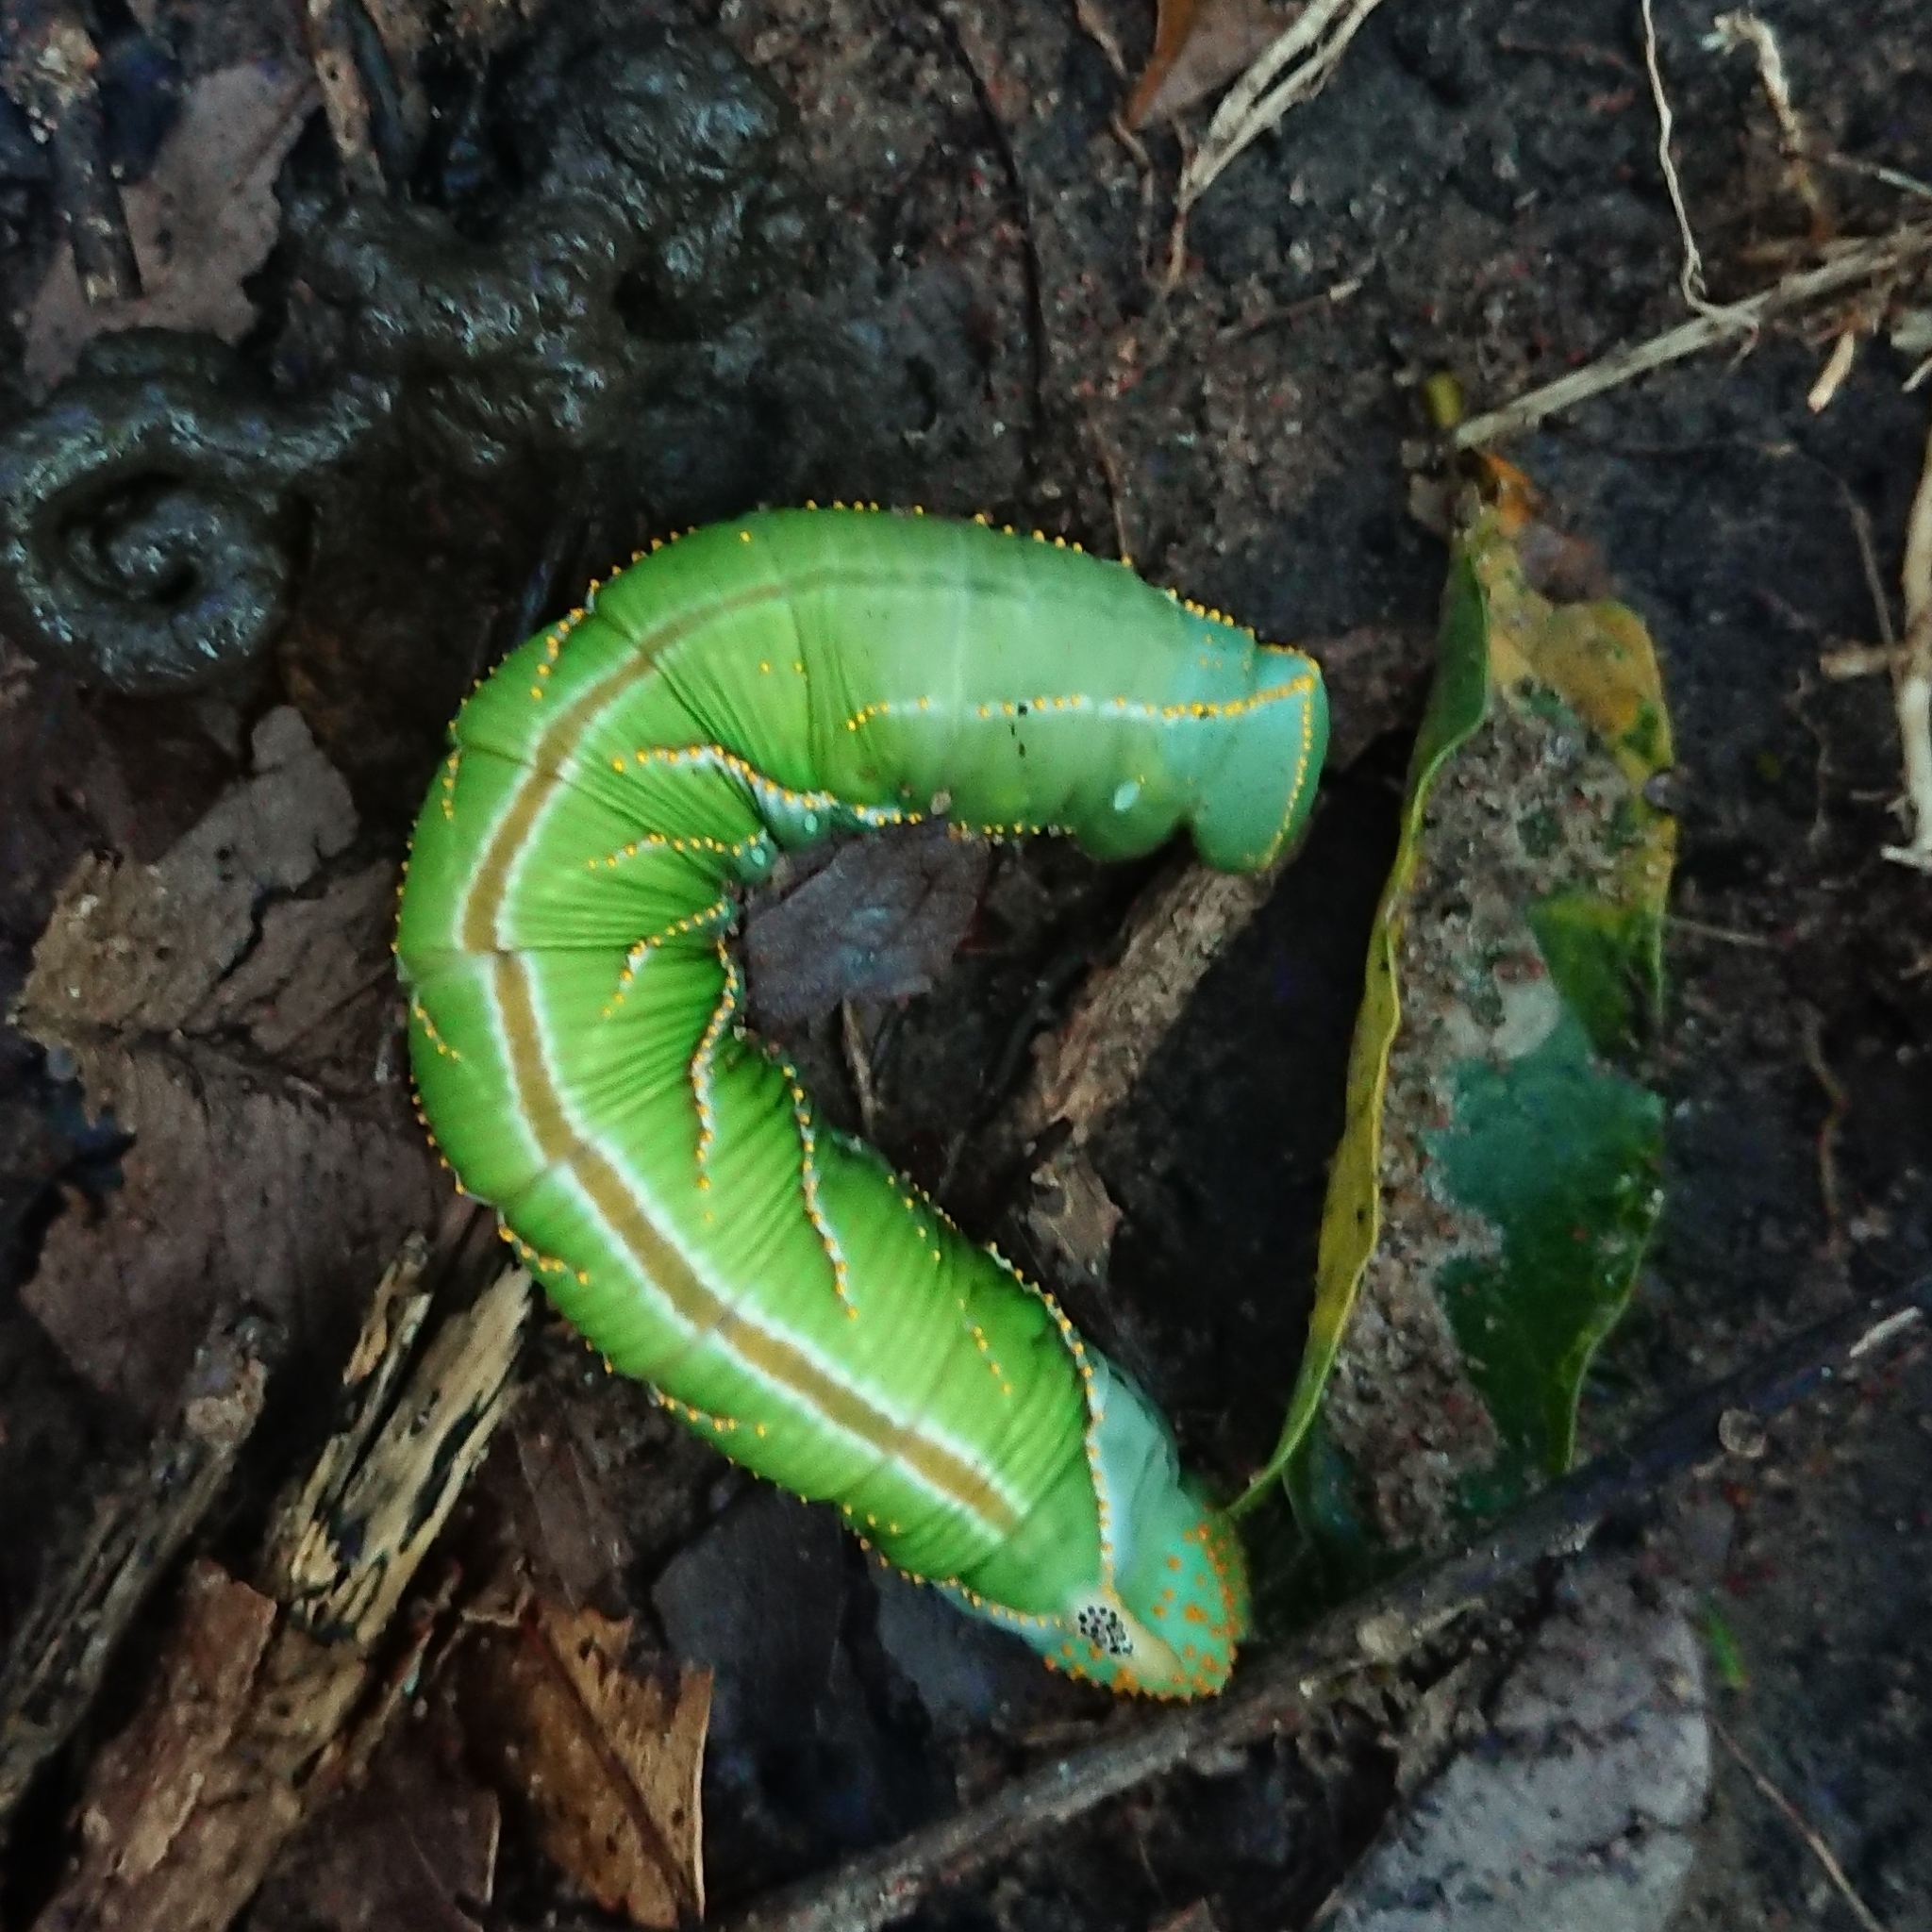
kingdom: Animalia
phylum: Arthropoda
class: Insecta
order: Lepidoptera
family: Sphingidae
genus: Platysphinx
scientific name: Platysphinx piabilis
